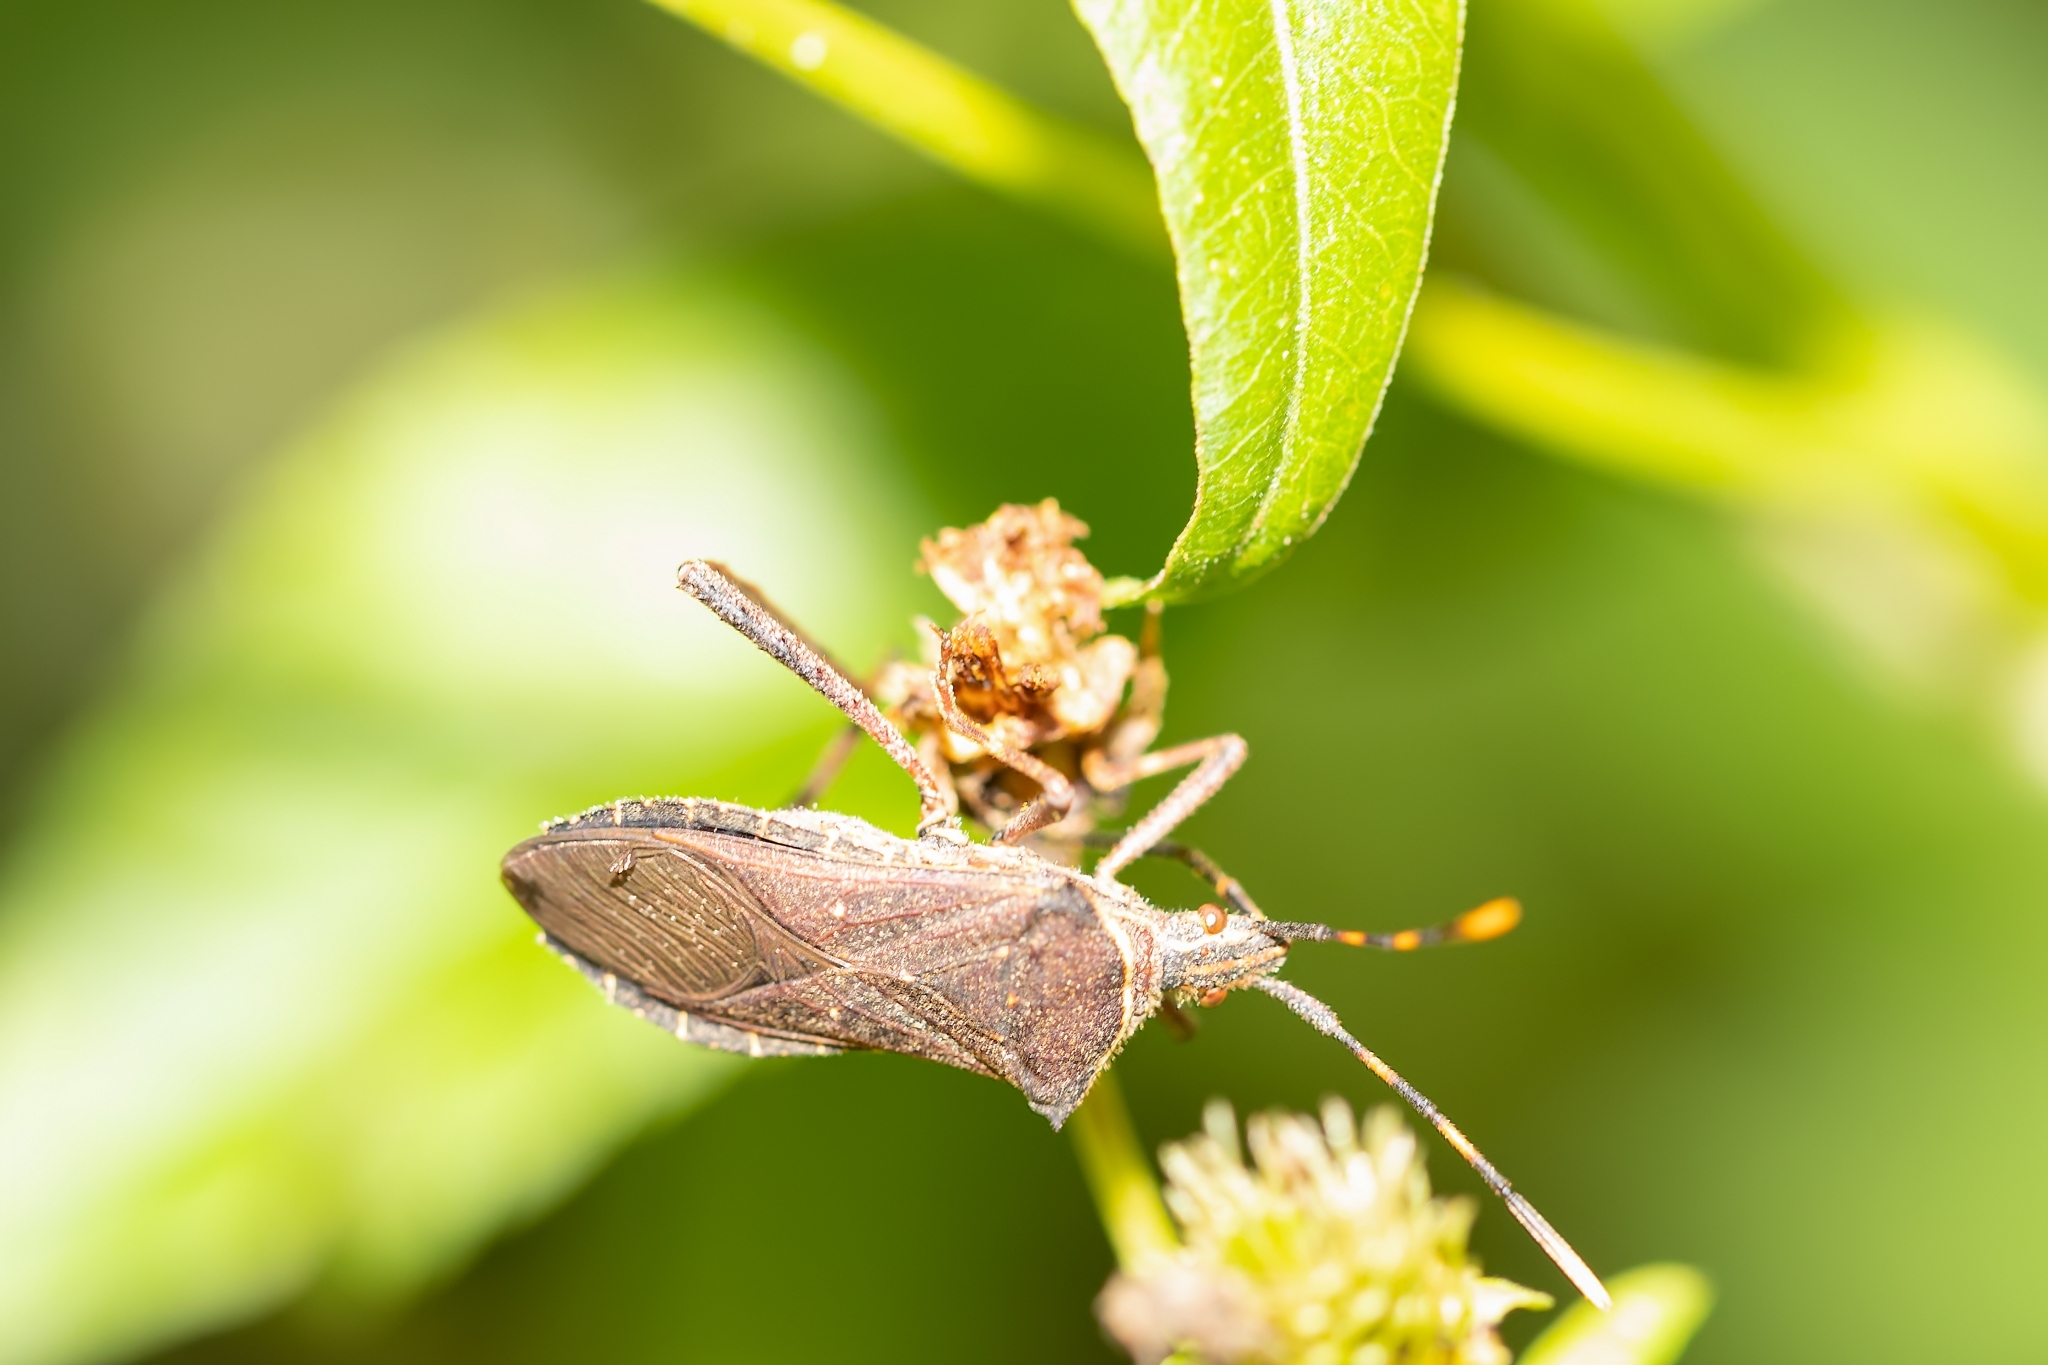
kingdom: Animalia
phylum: Arthropoda
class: Insecta
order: Hemiptera
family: Coreidae
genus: Leptoglossus
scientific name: Leptoglossus gonagra
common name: Citron bug
